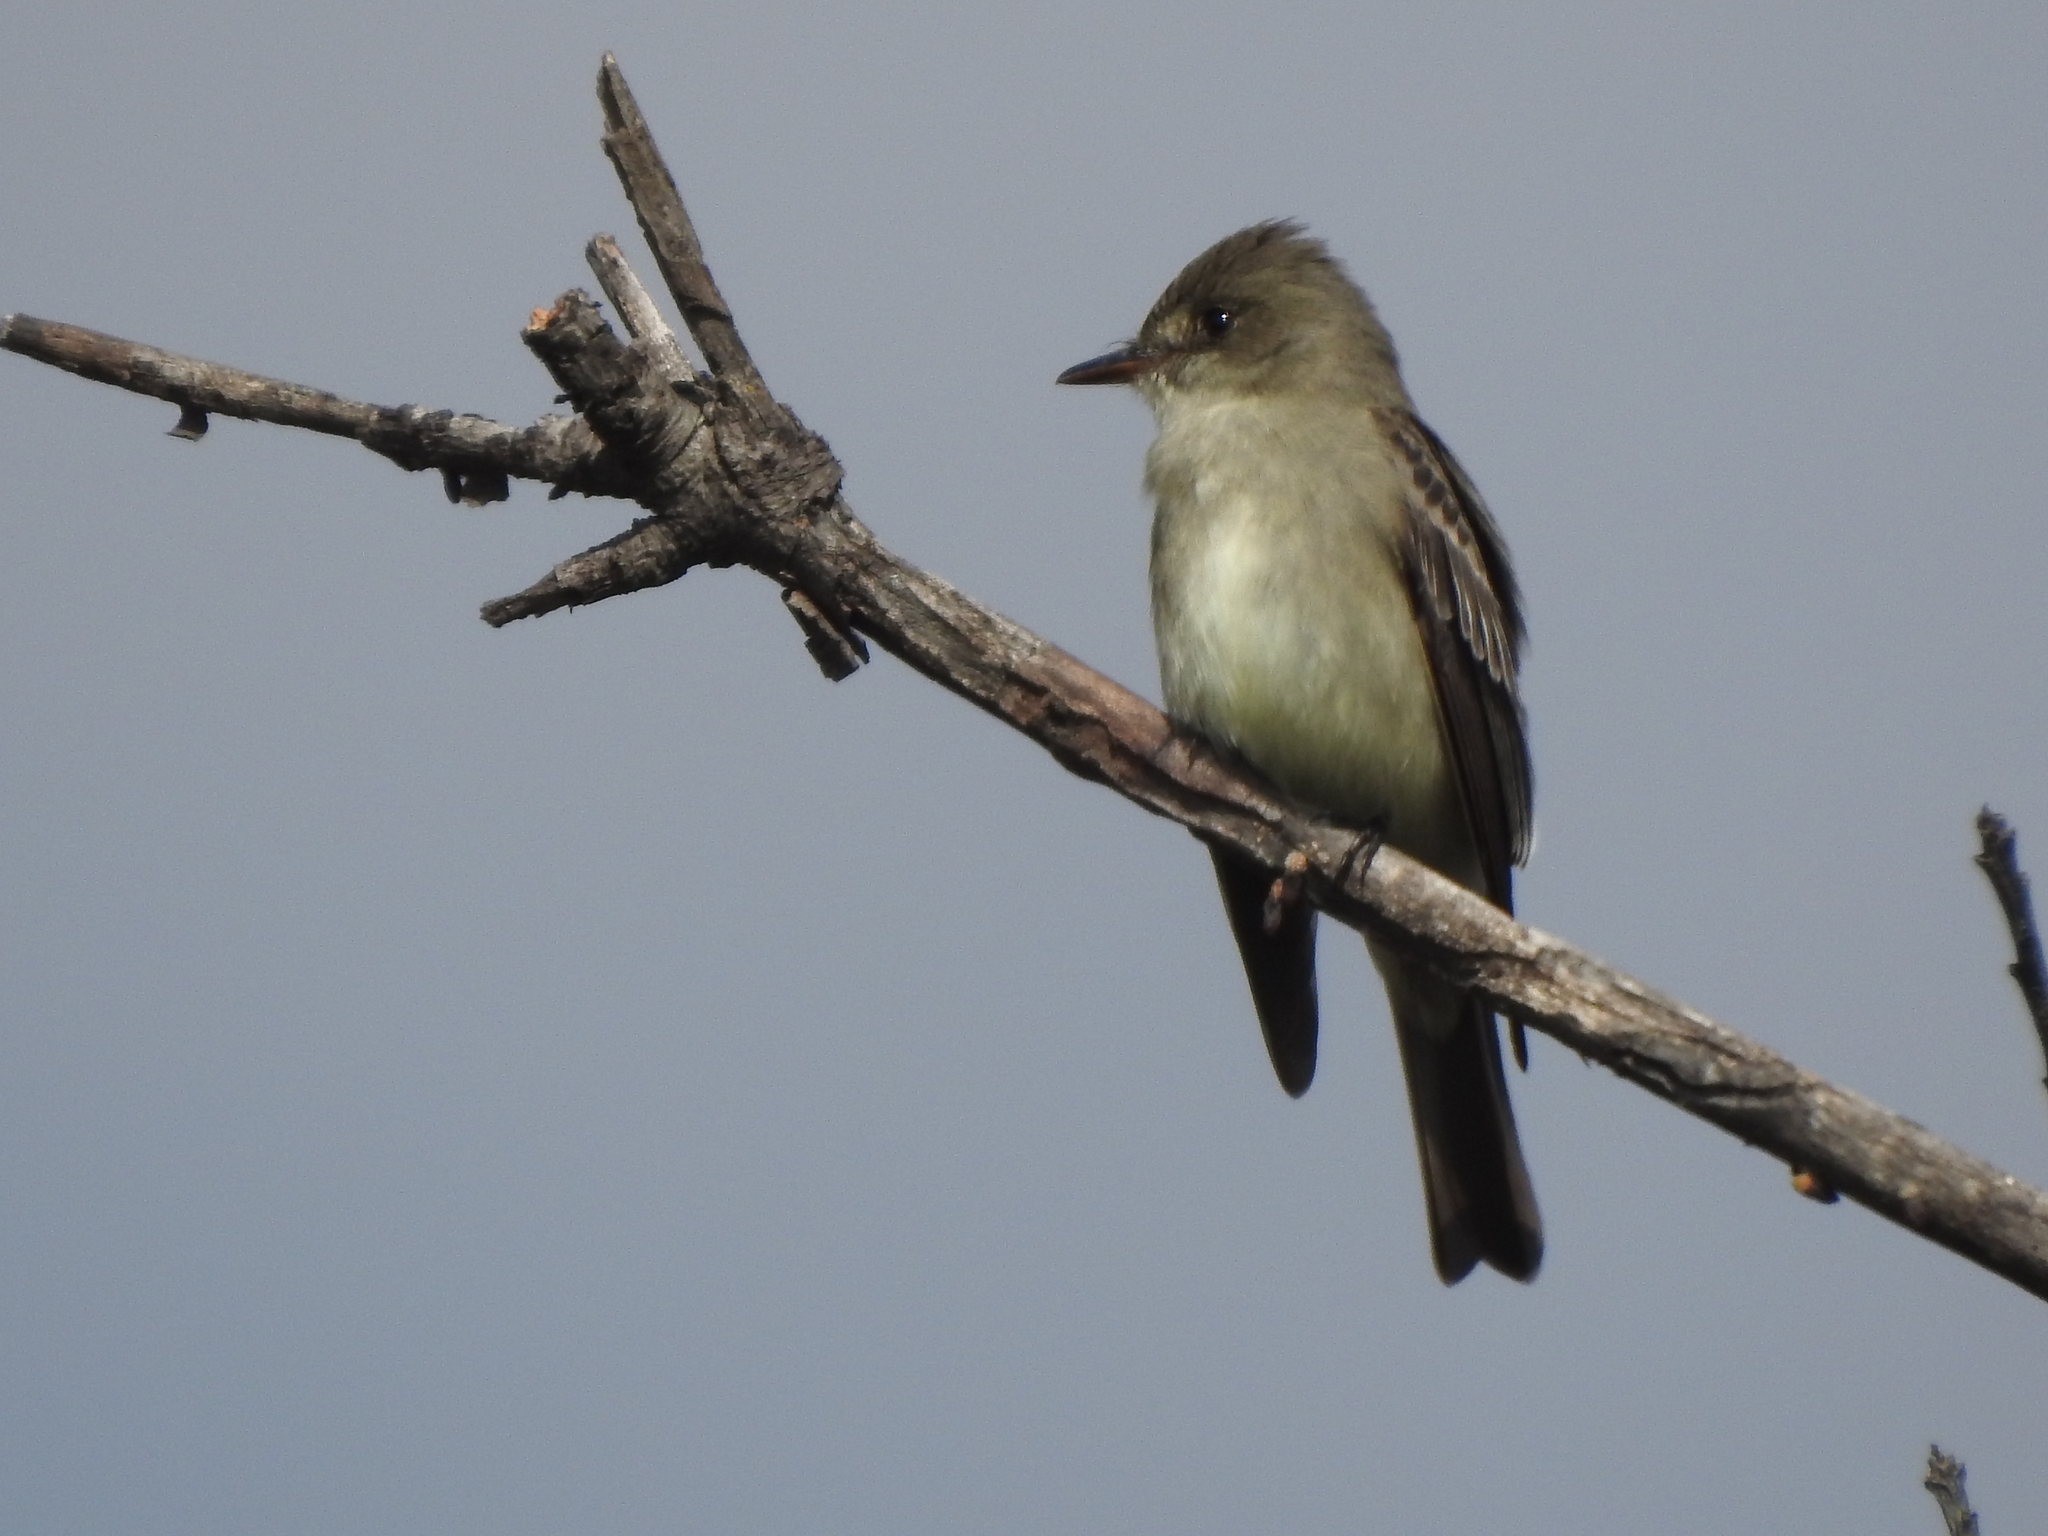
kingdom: Animalia
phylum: Chordata
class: Aves
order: Passeriformes
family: Tyrannidae
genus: Contopus
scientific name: Contopus sordidulus
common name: Western wood-pewee
